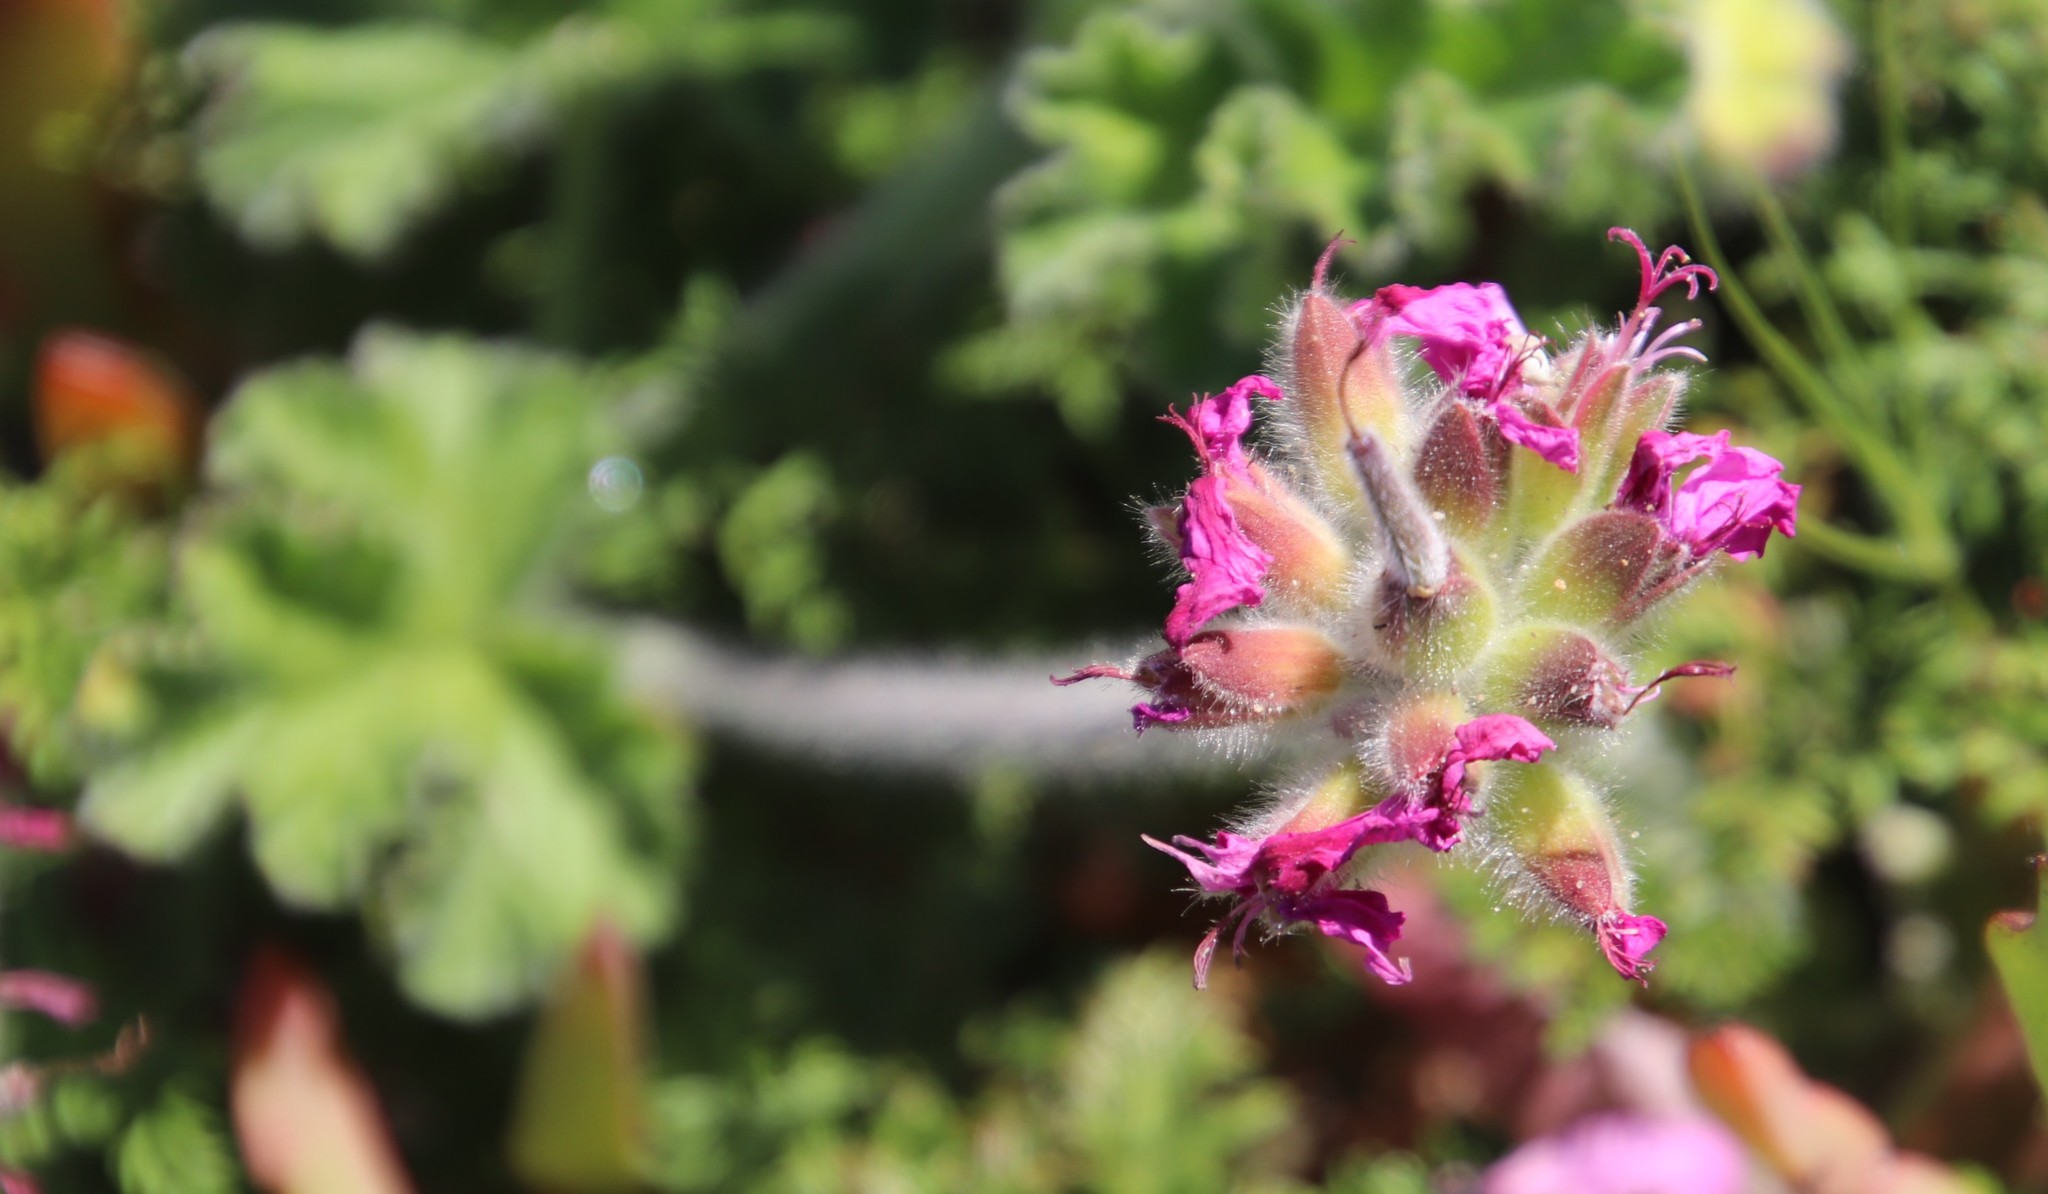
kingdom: Plantae
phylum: Tracheophyta
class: Magnoliopsida
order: Geraniales
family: Geraniaceae
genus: Pelargonium
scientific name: Pelargonium capitatum
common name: Rose scented geranium
